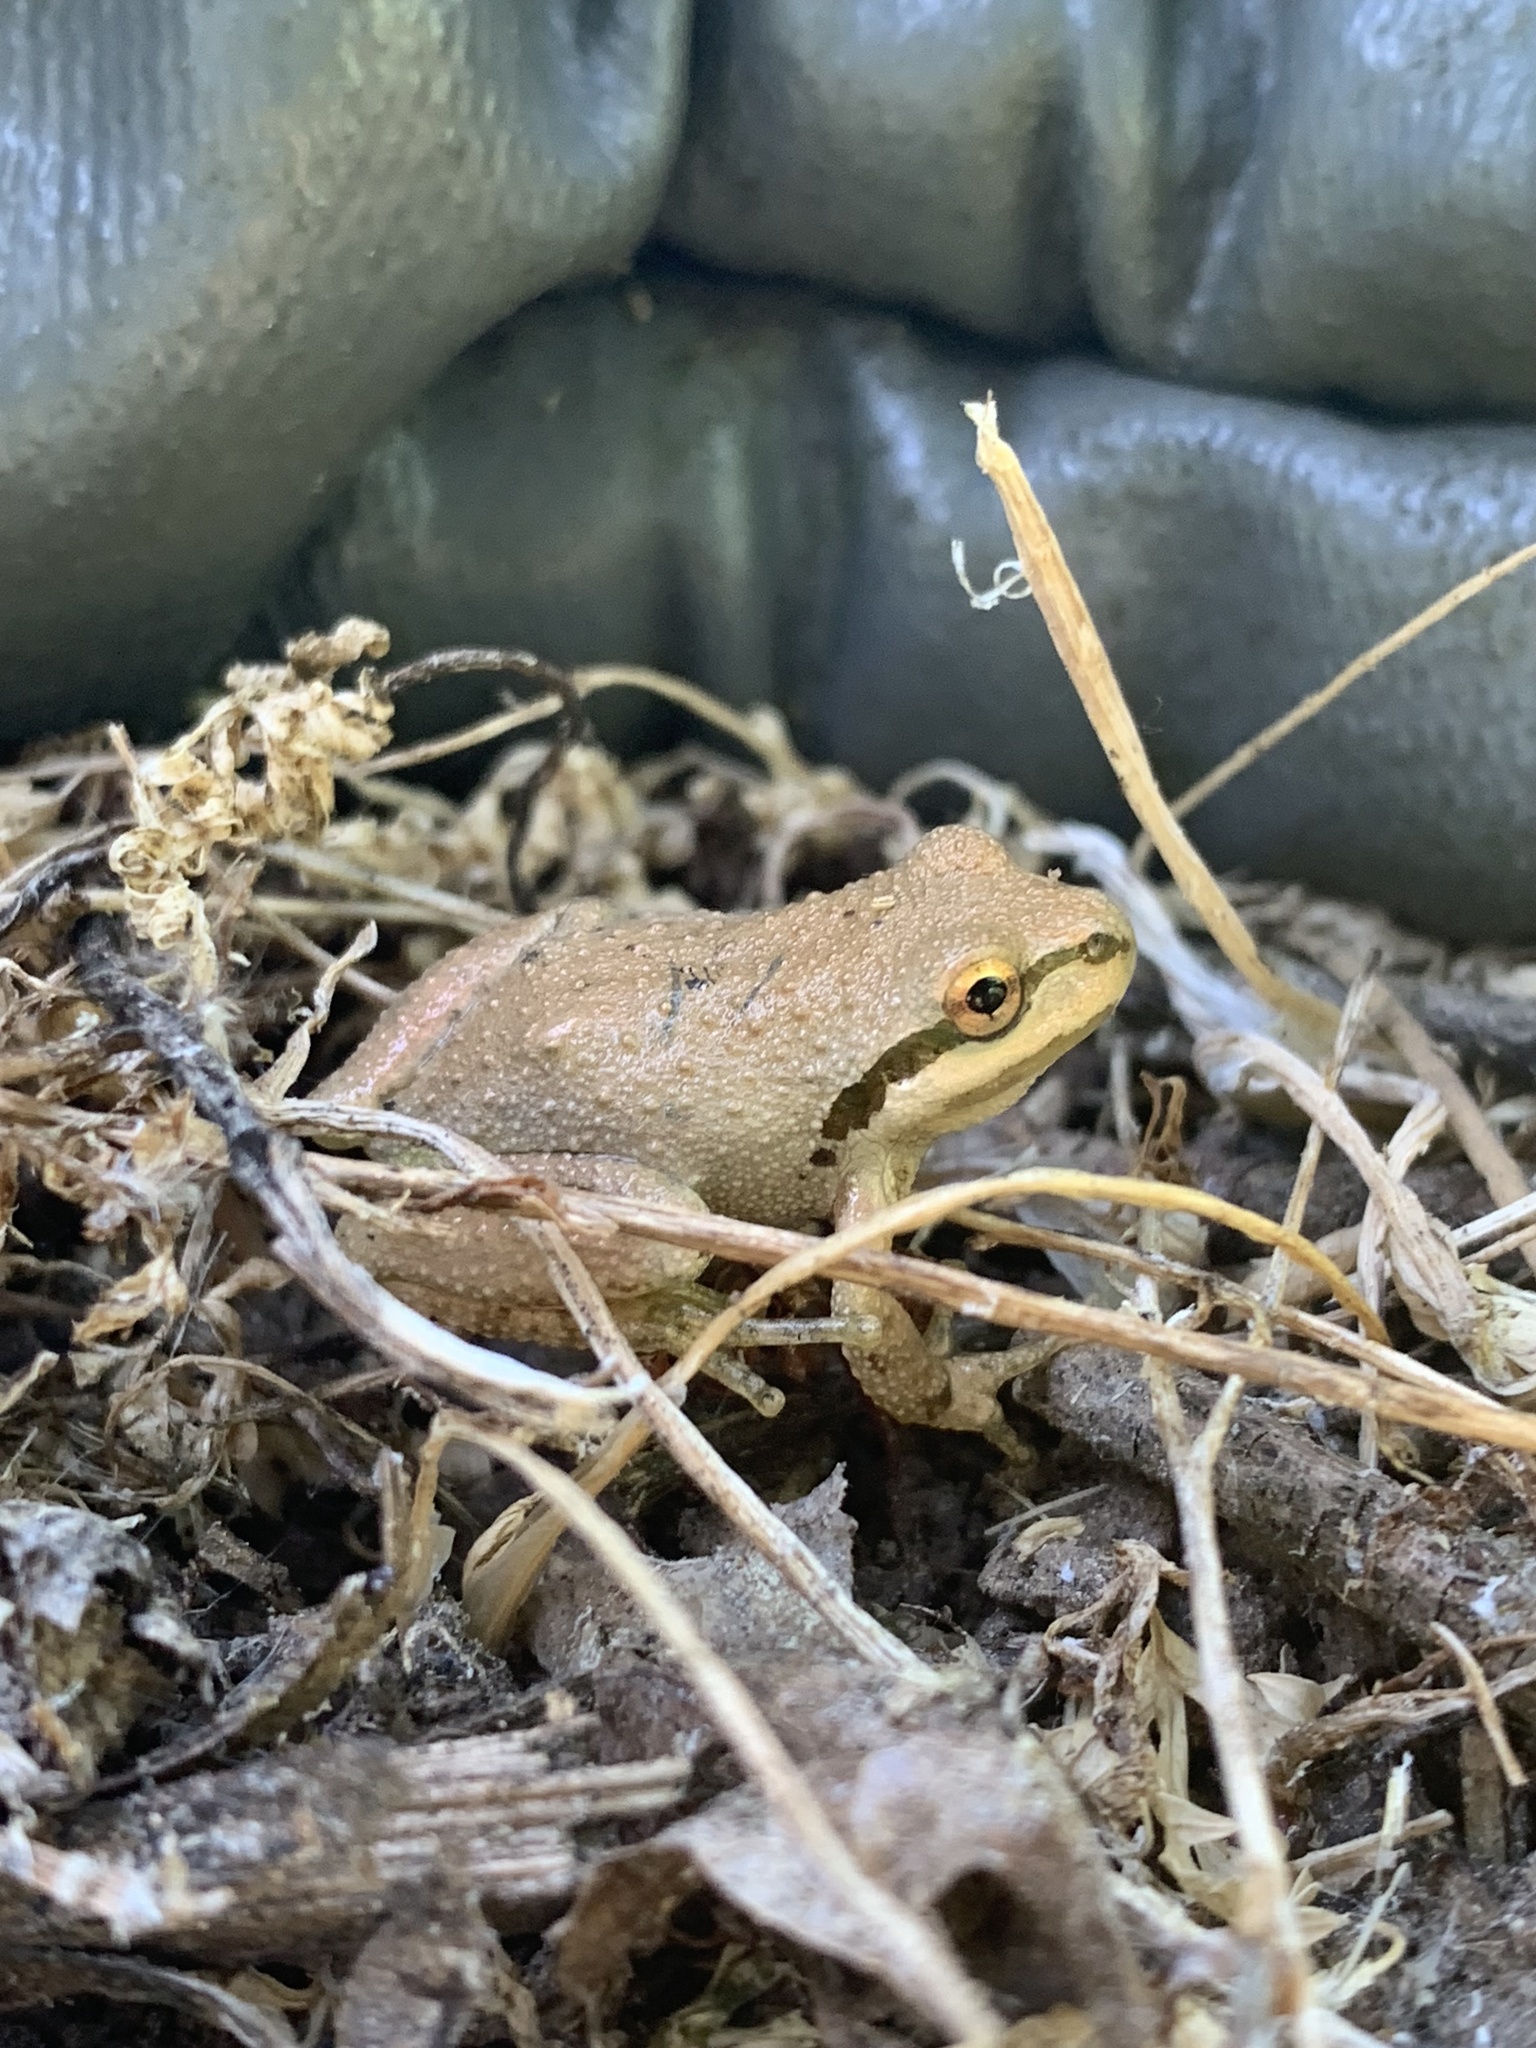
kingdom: Animalia
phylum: Chordata
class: Amphibia
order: Anura
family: Hylidae
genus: Pseudacris
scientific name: Pseudacris regilla
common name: Pacific chorus frog
